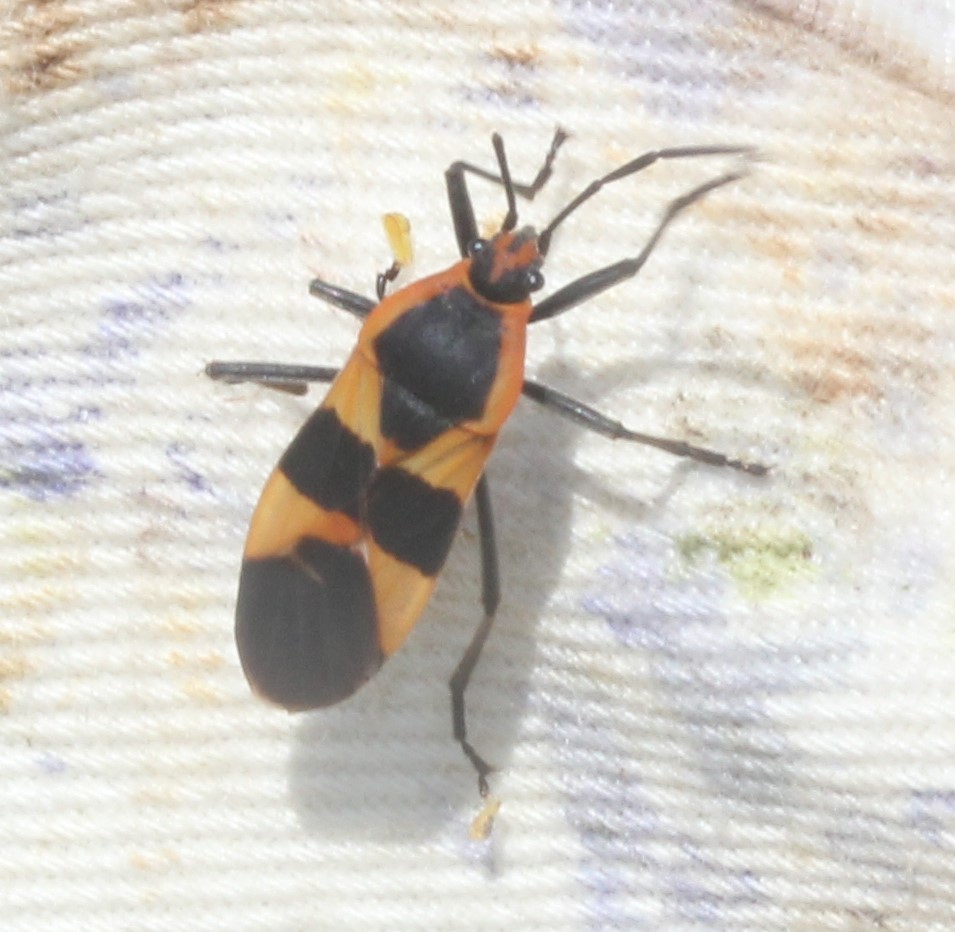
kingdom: Animalia
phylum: Arthropoda
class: Insecta
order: Hemiptera
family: Lygaeidae
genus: Oncopeltus
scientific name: Oncopeltus fasciatus
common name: Large milkweed bug
